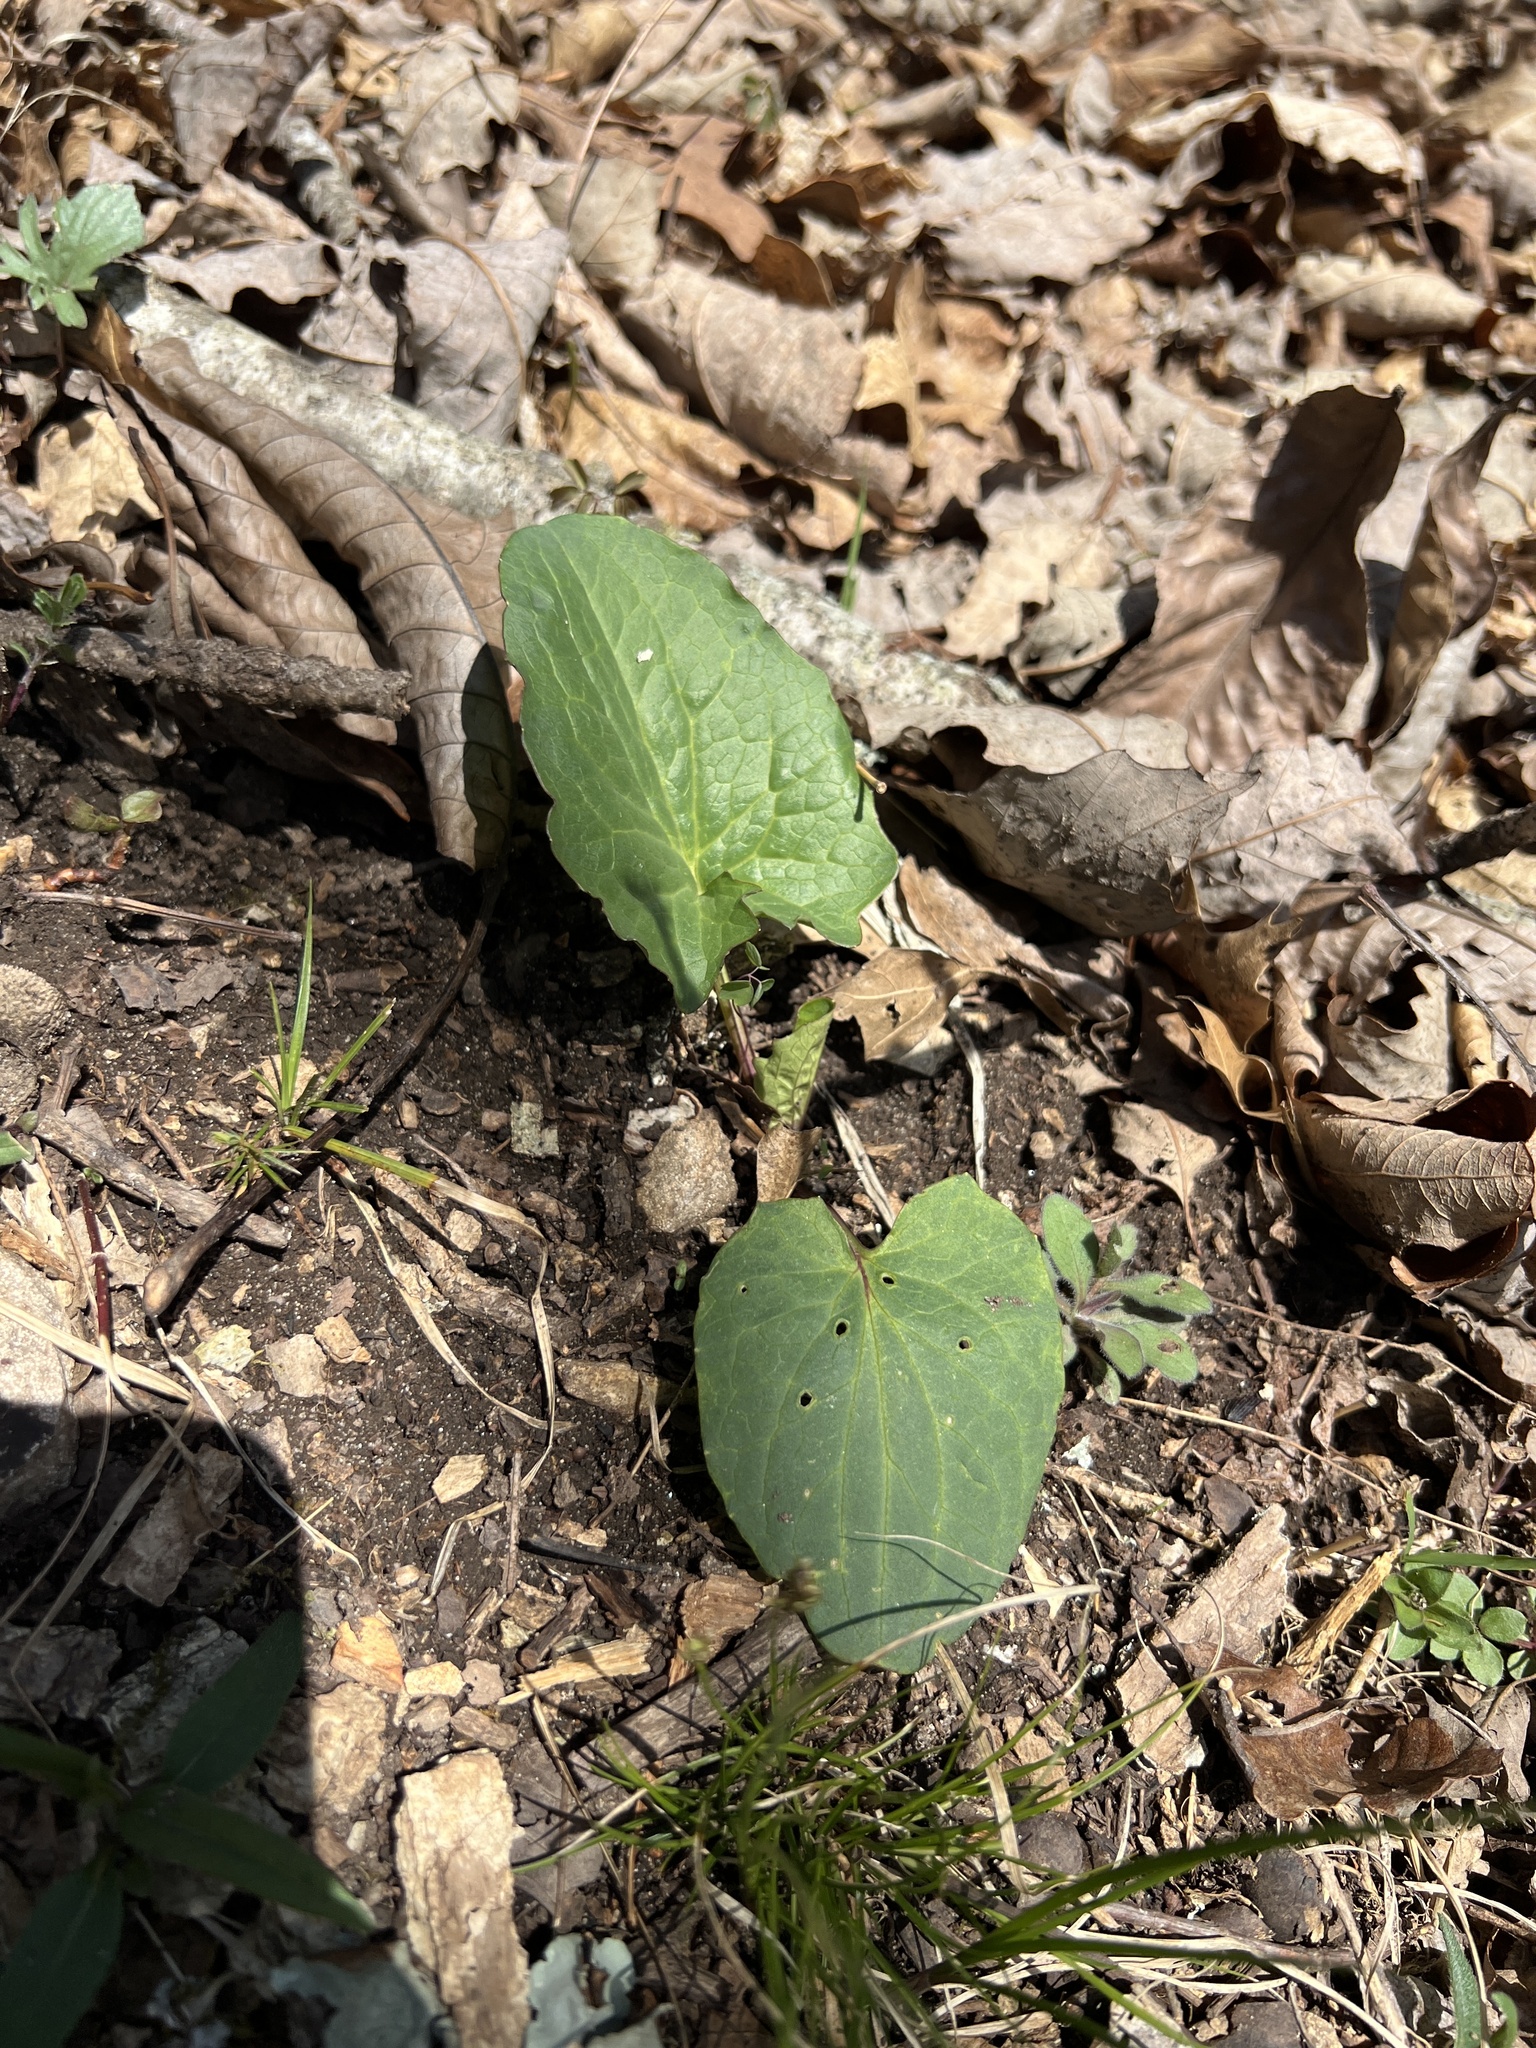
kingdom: Plantae
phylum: Tracheophyta
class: Magnoliopsida
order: Asterales
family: Asteraceae
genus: Arnoglossum
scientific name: Arnoglossum atriplicifolium
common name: Pale indian-plantain
